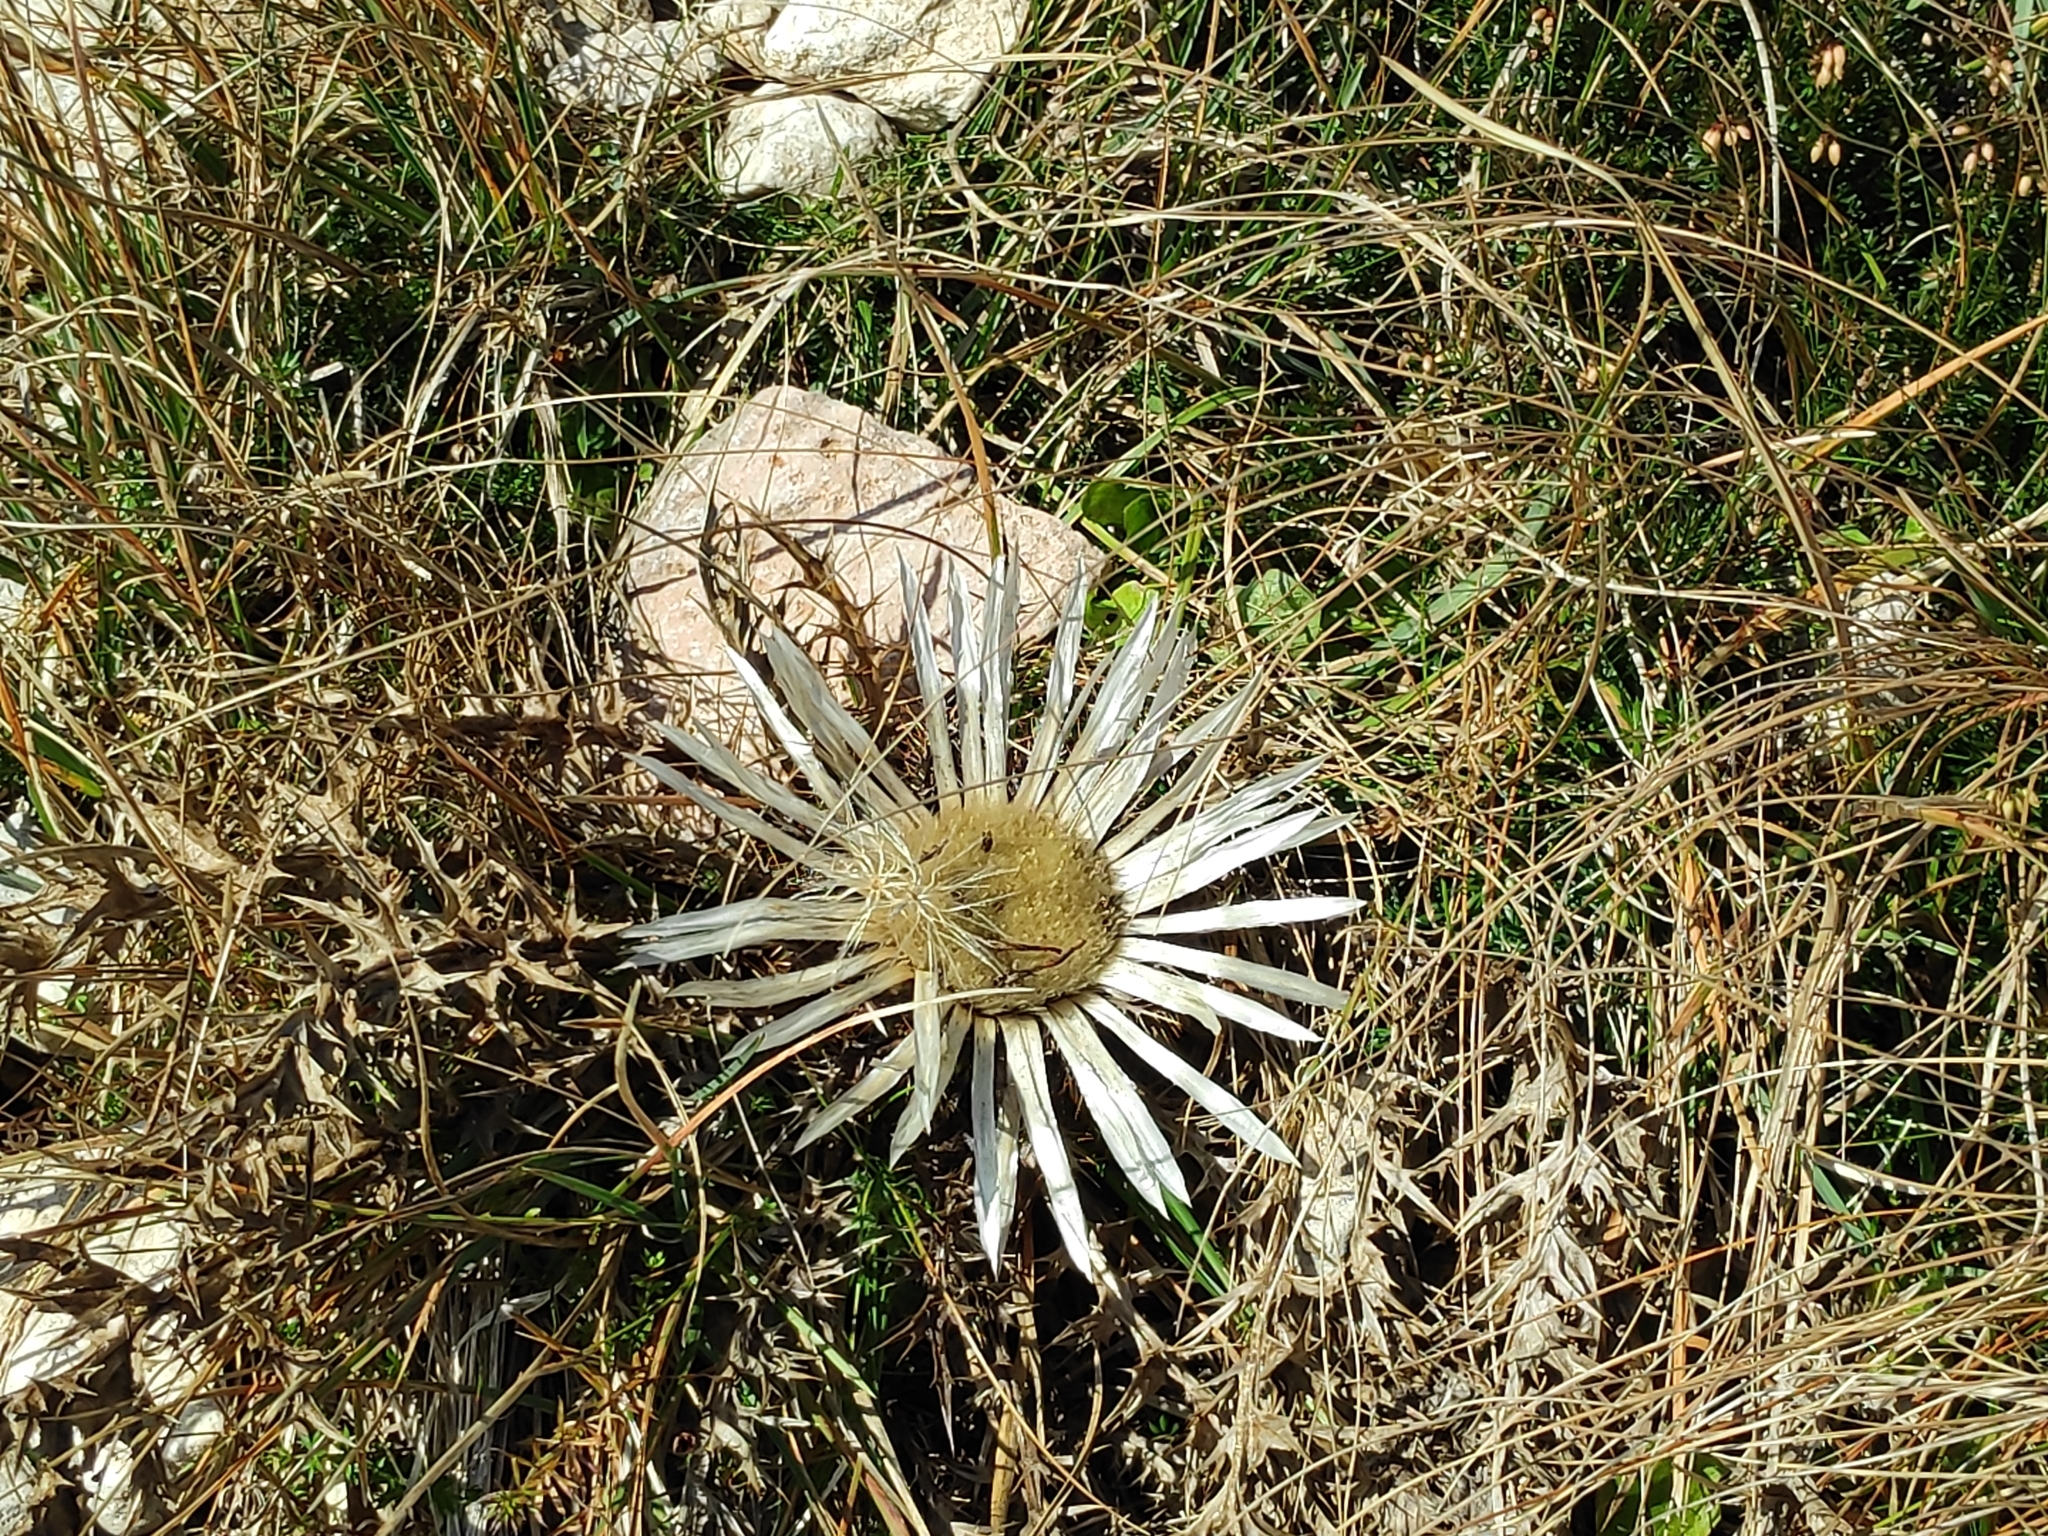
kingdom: Plantae
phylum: Tracheophyta
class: Magnoliopsida
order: Asterales
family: Asteraceae
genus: Carlina
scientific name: Carlina acaulis
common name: Stemless carline thistle
